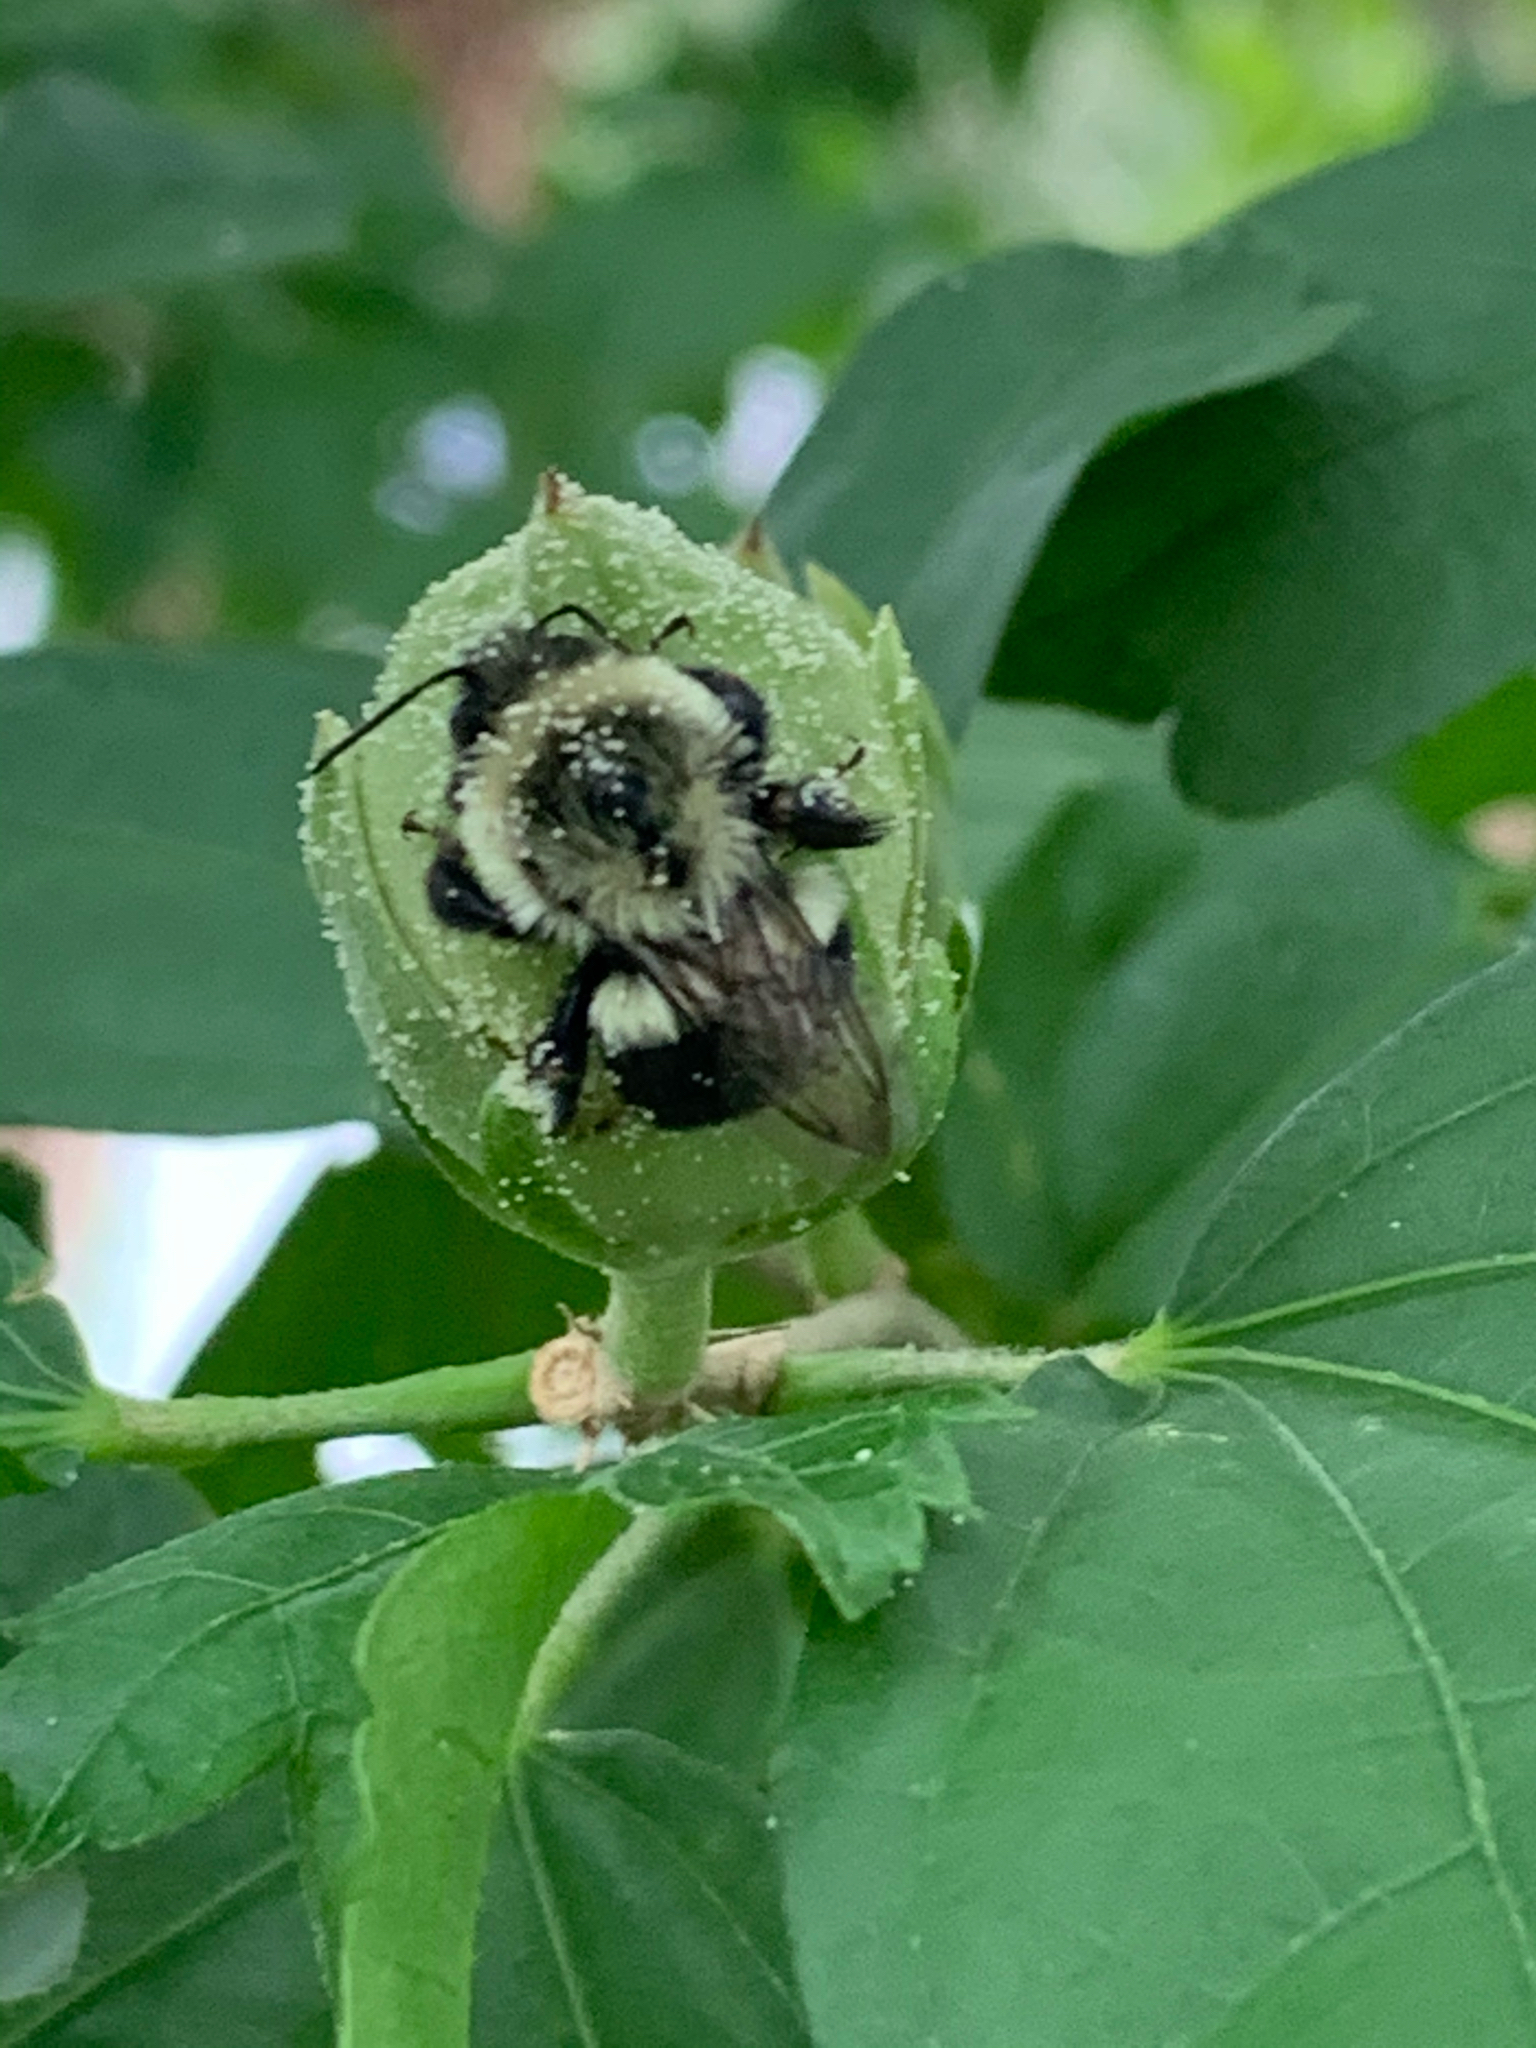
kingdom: Animalia
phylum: Arthropoda
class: Insecta
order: Hymenoptera
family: Apidae
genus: Bombus
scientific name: Bombus impatiens
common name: Common eastern bumble bee
